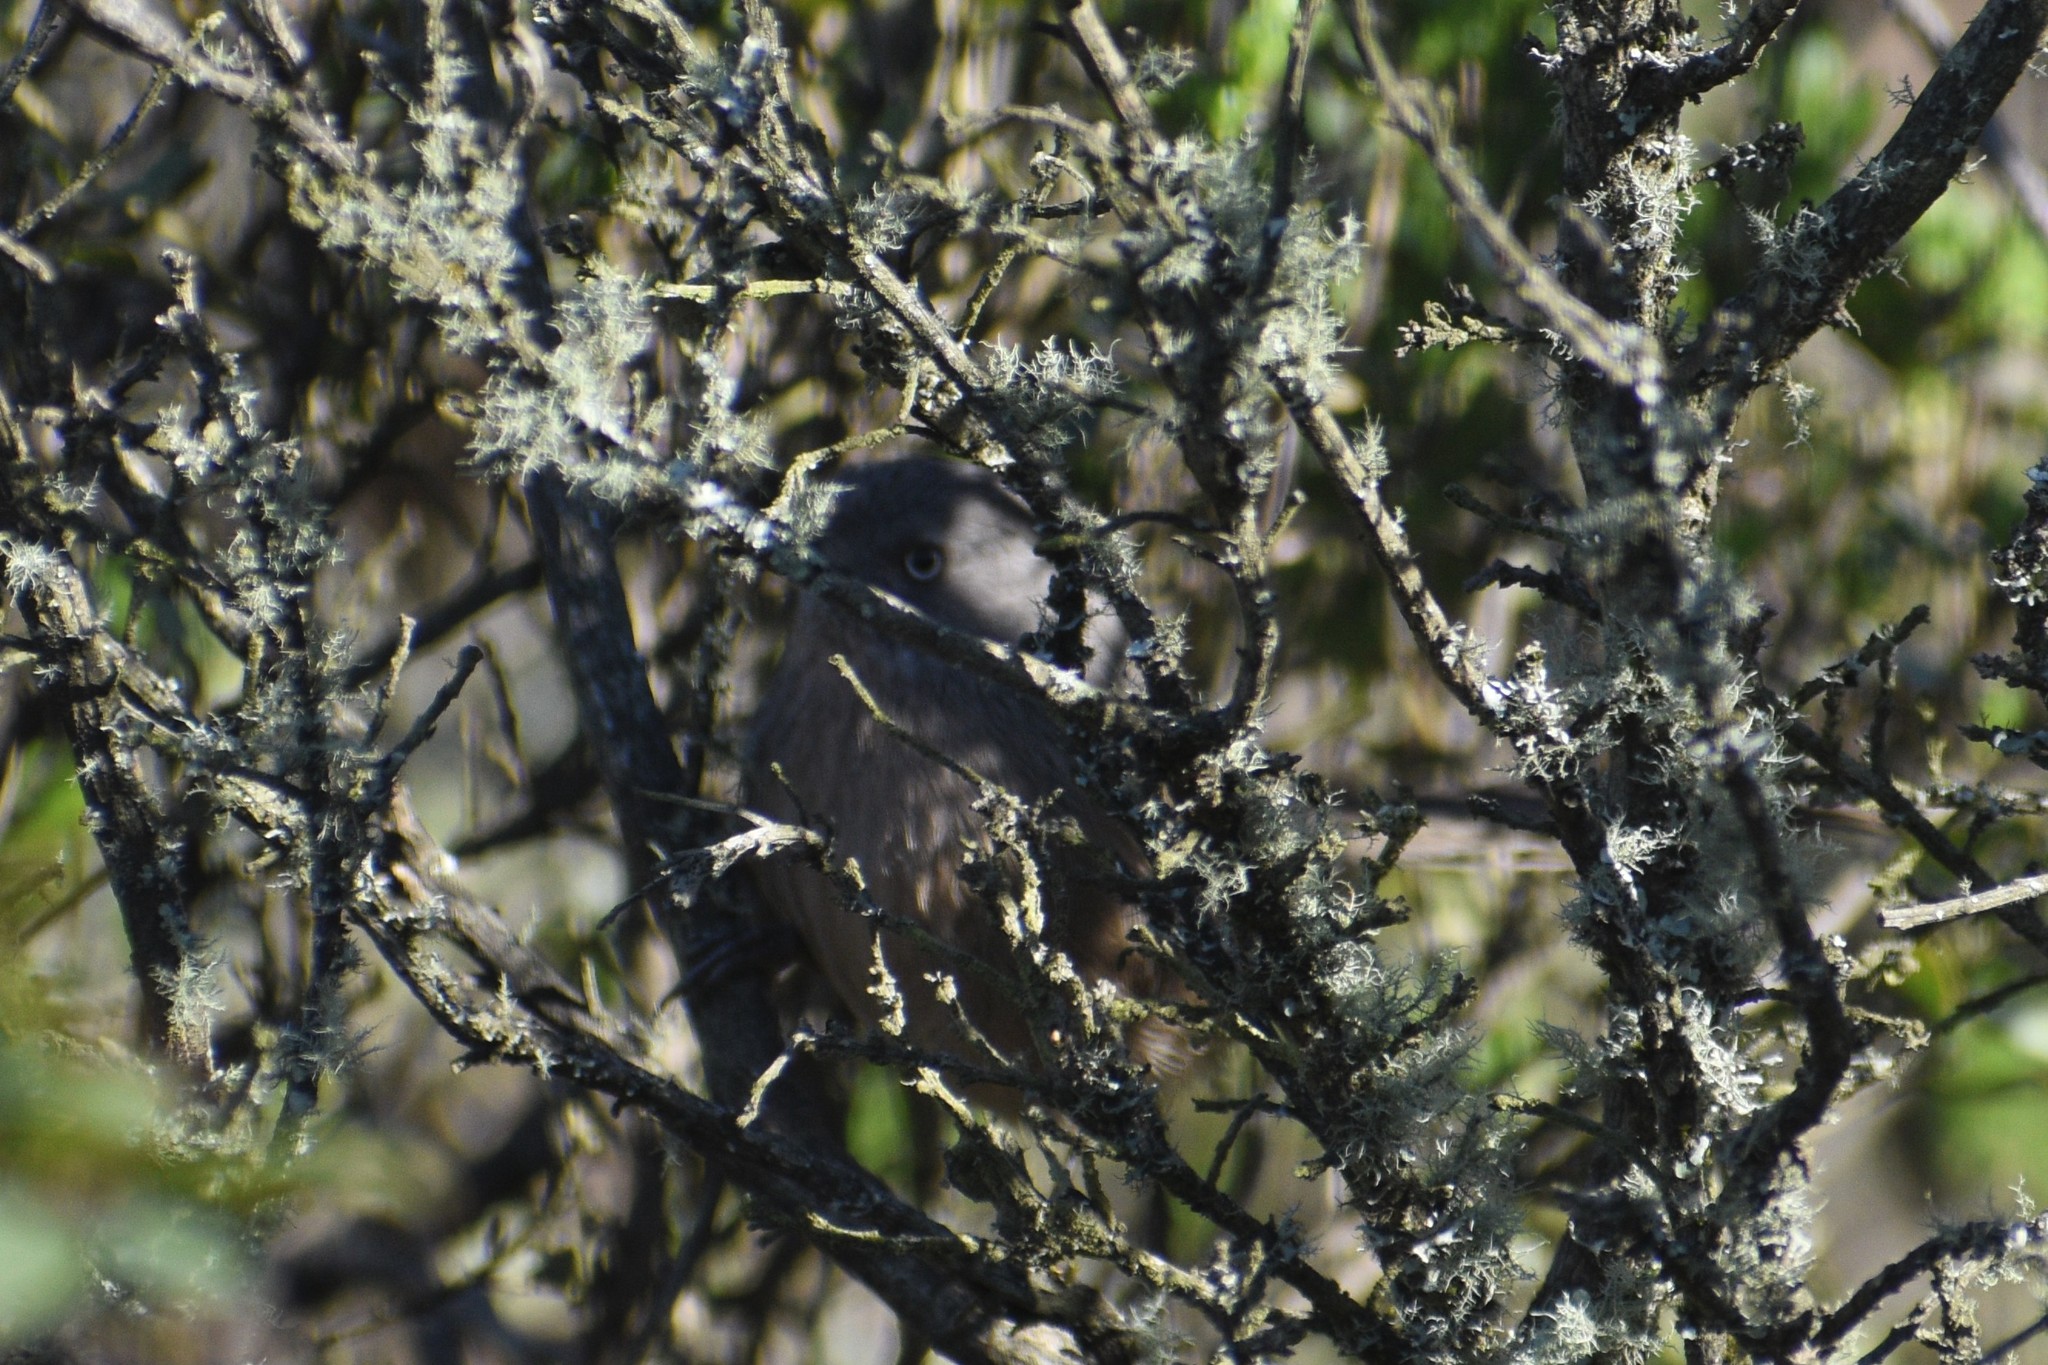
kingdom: Animalia
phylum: Chordata
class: Aves
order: Passeriformes
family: Sylviidae
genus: Chamaea
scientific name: Chamaea fasciata
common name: Wrentit
